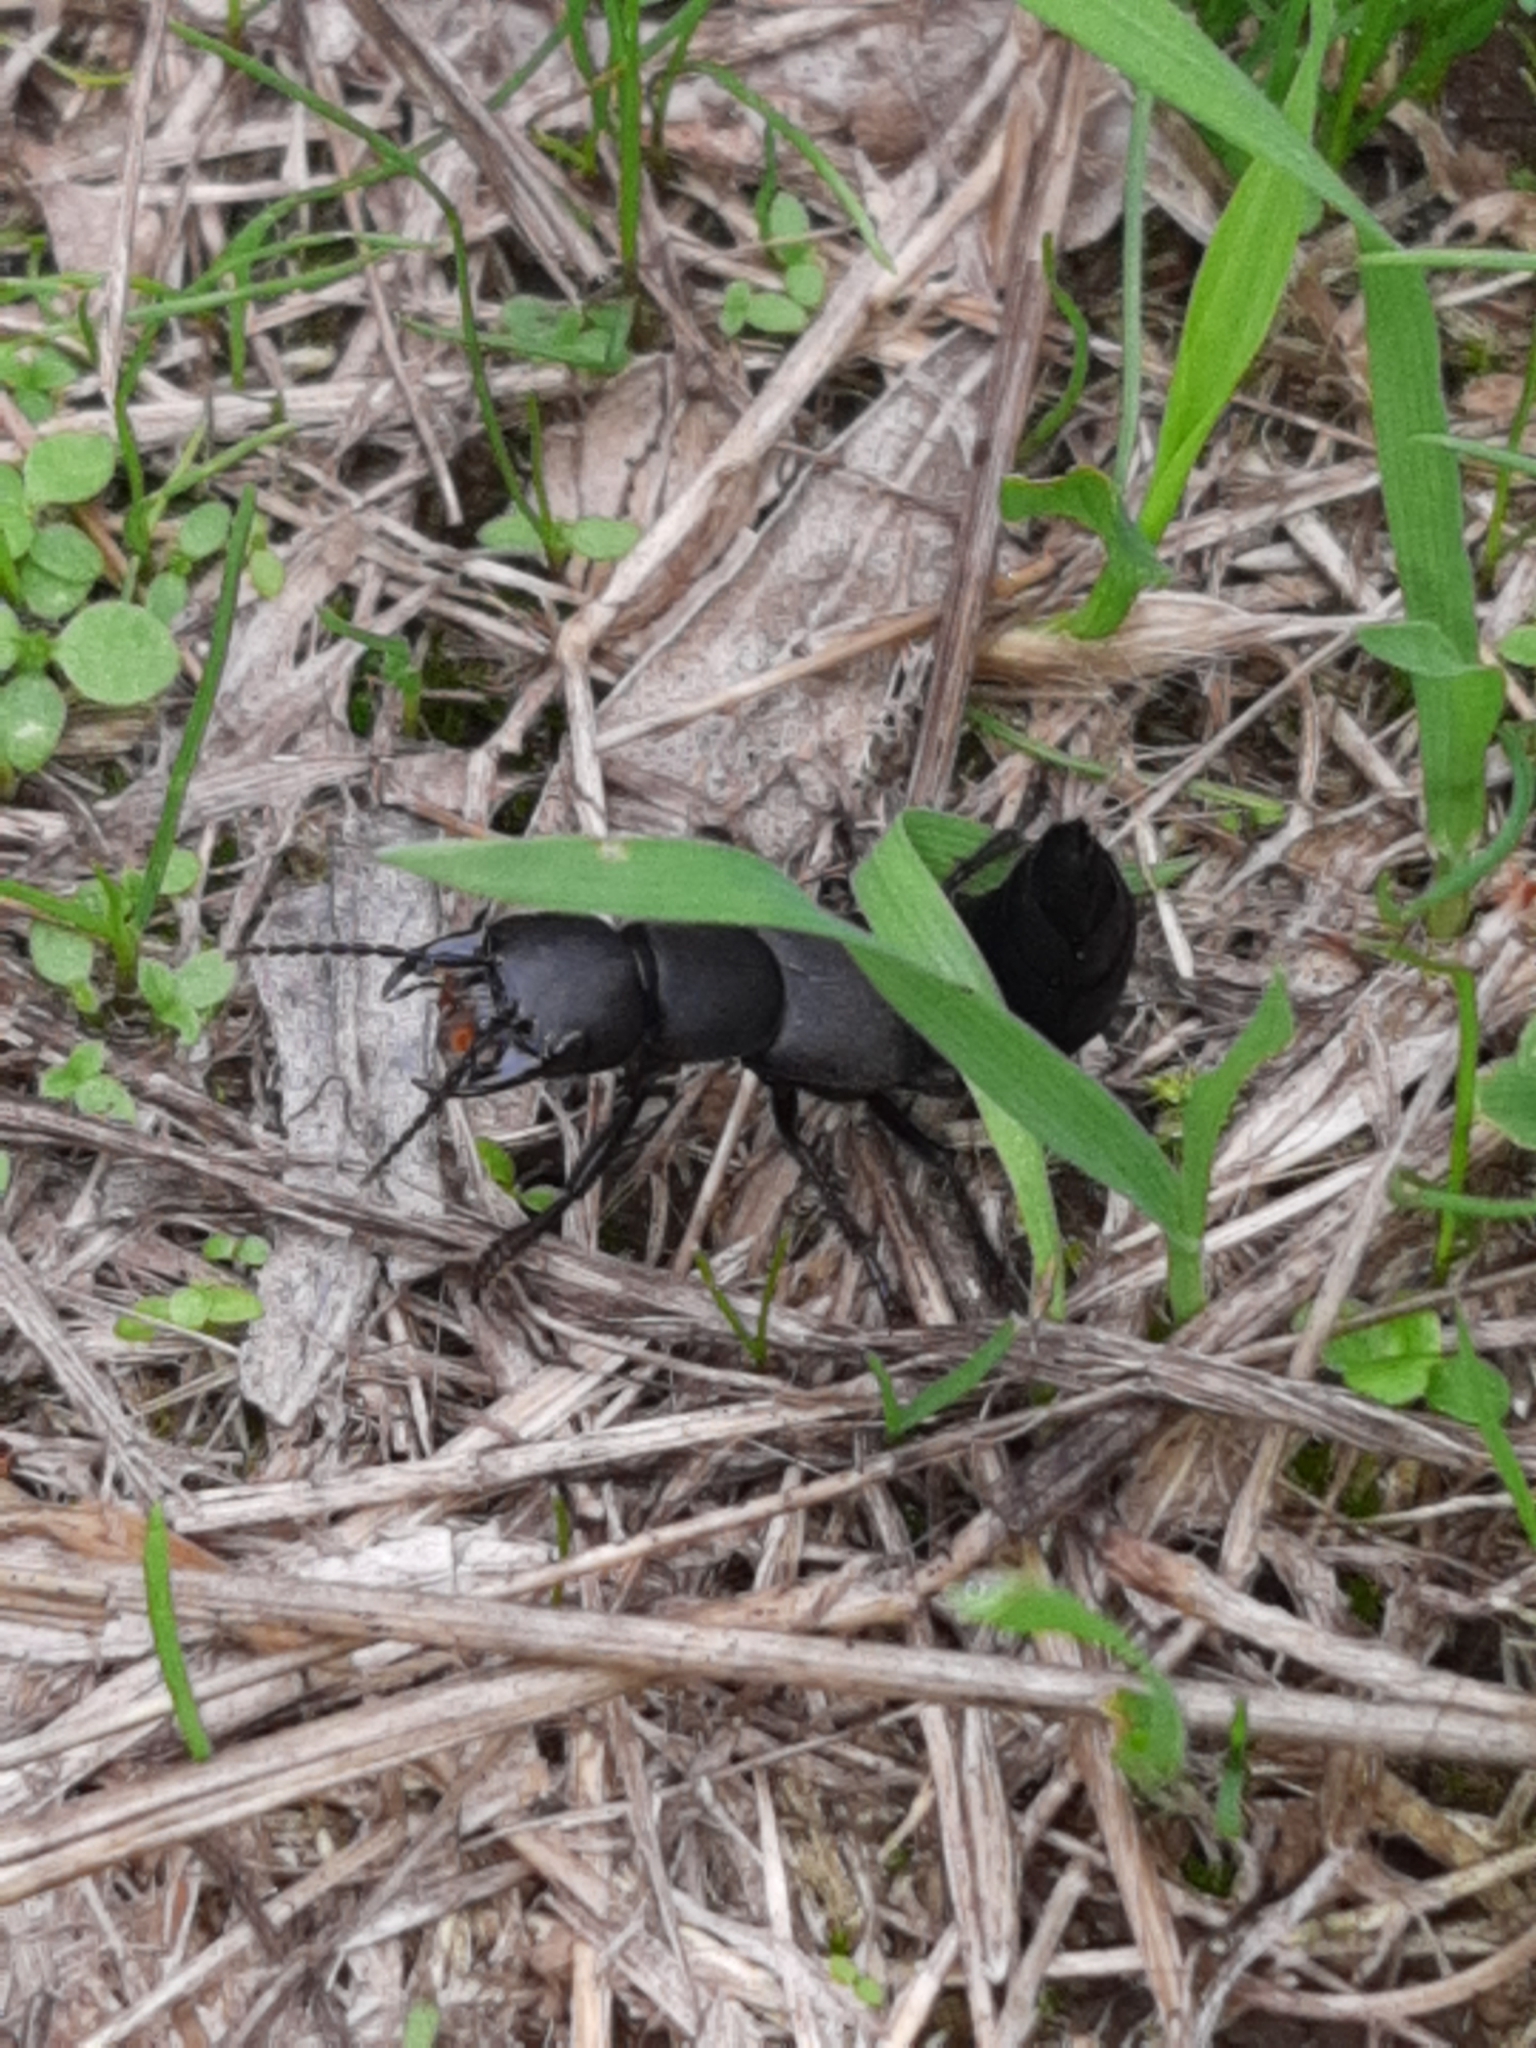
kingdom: Animalia
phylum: Arthropoda
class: Insecta
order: Coleoptera
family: Staphylinidae
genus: Ocypus
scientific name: Ocypus olens
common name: Devil's coach-horse
